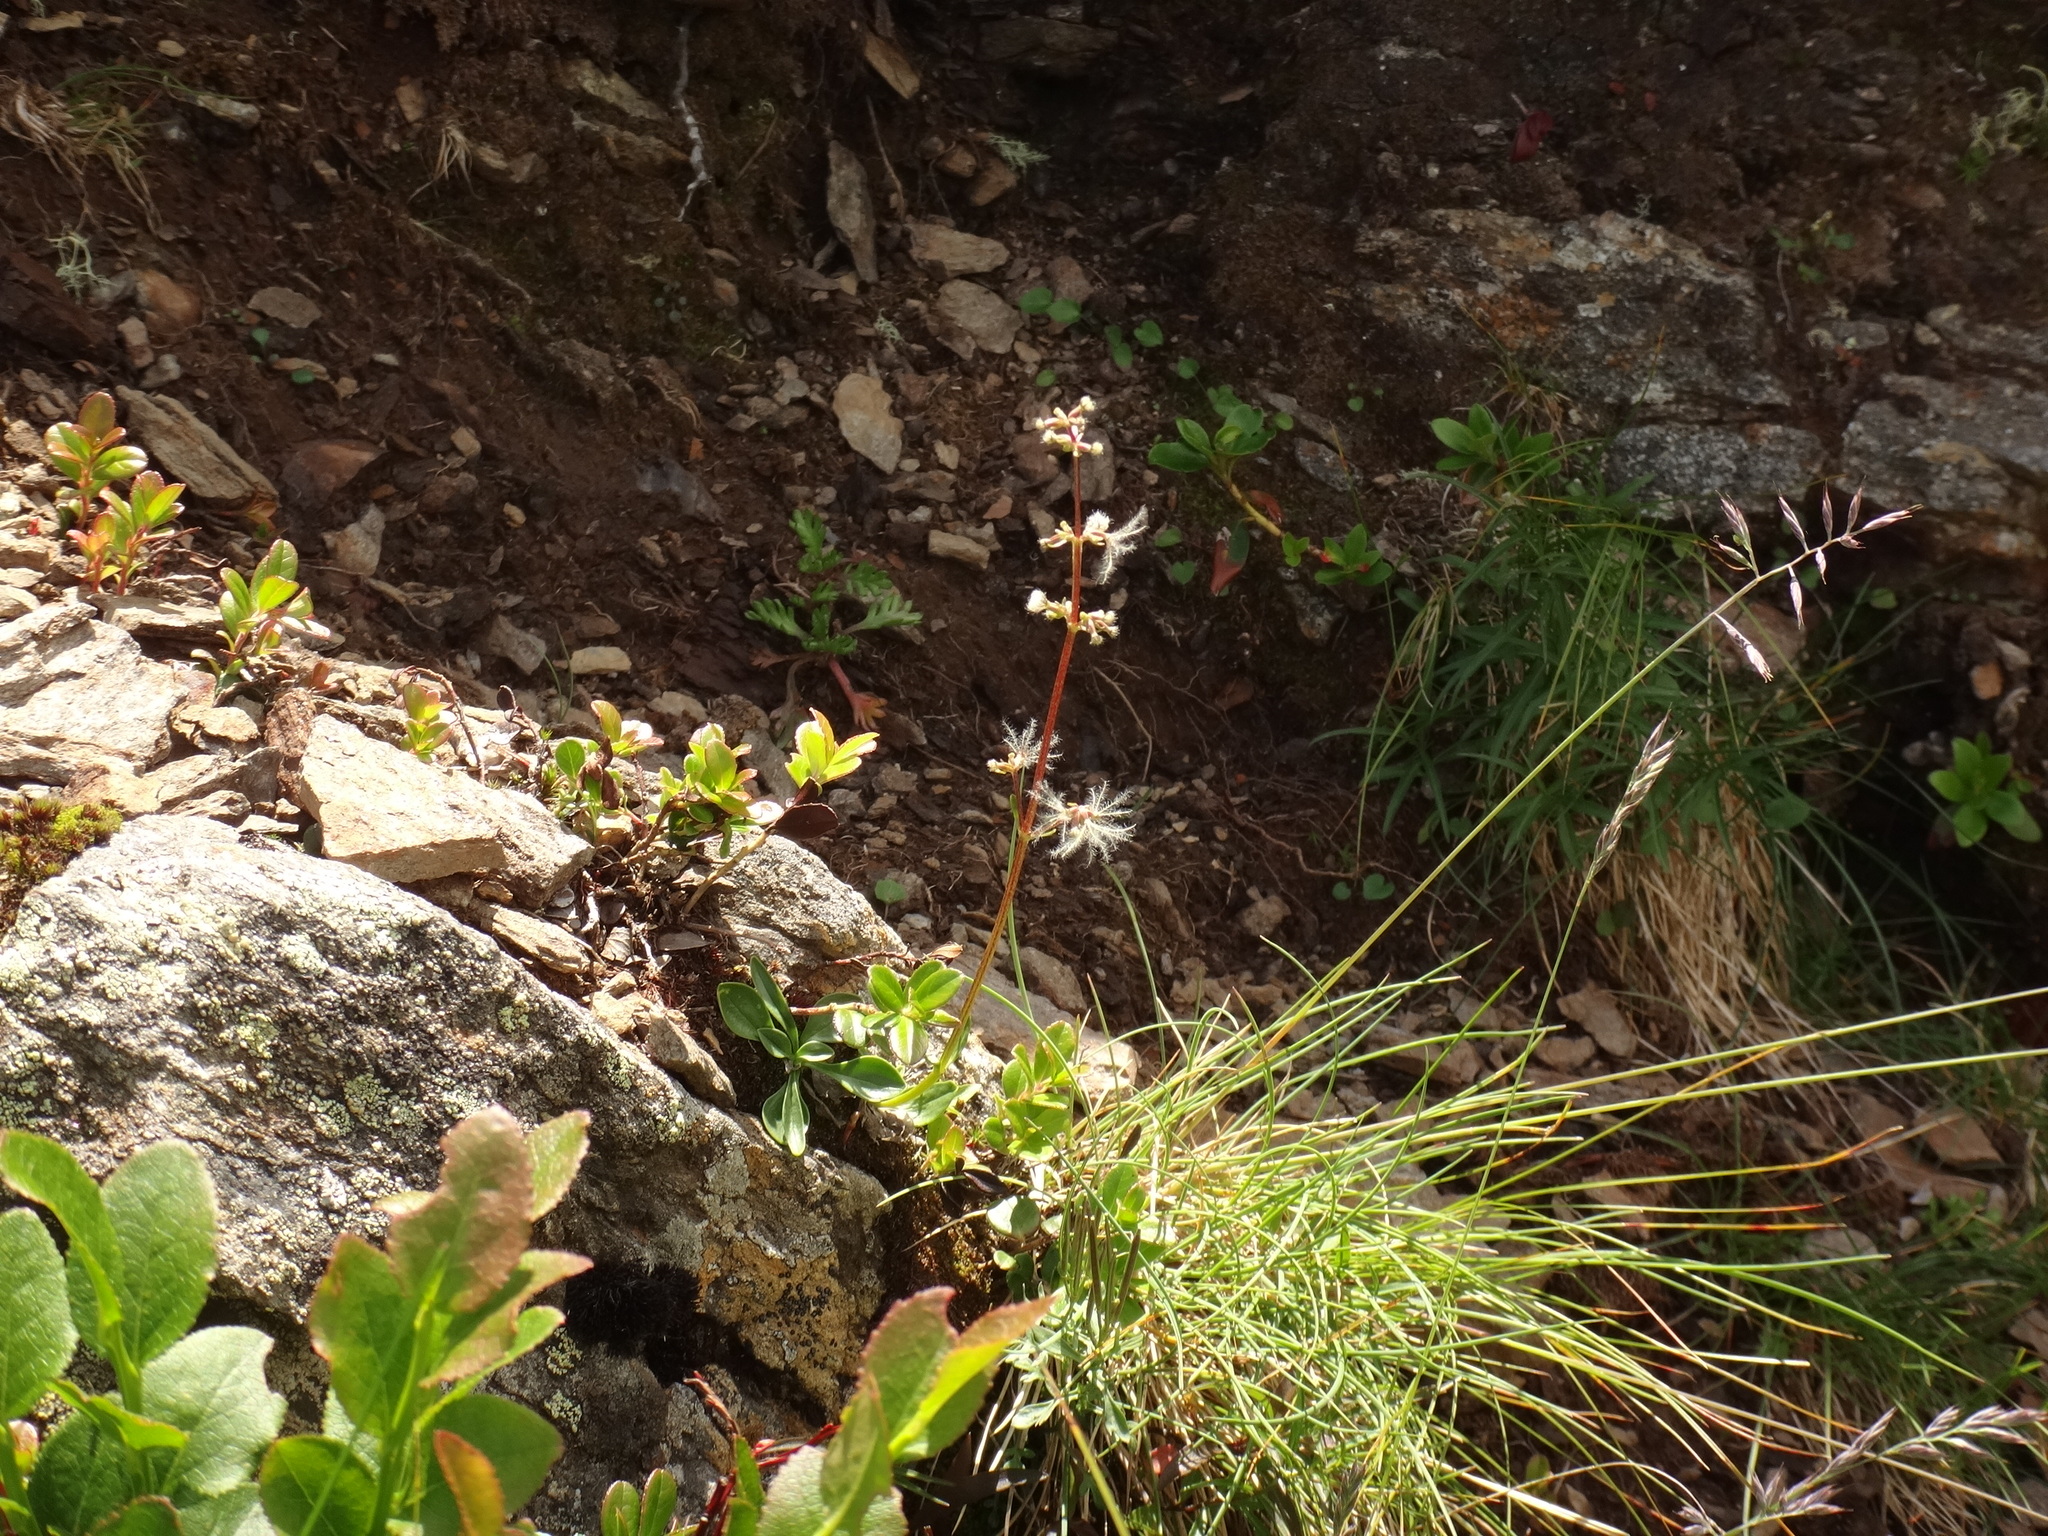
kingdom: Plantae
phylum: Tracheophyta
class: Magnoliopsida
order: Dipsacales
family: Caprifoliaceae
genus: Valeriana
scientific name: Valeriana celtica
